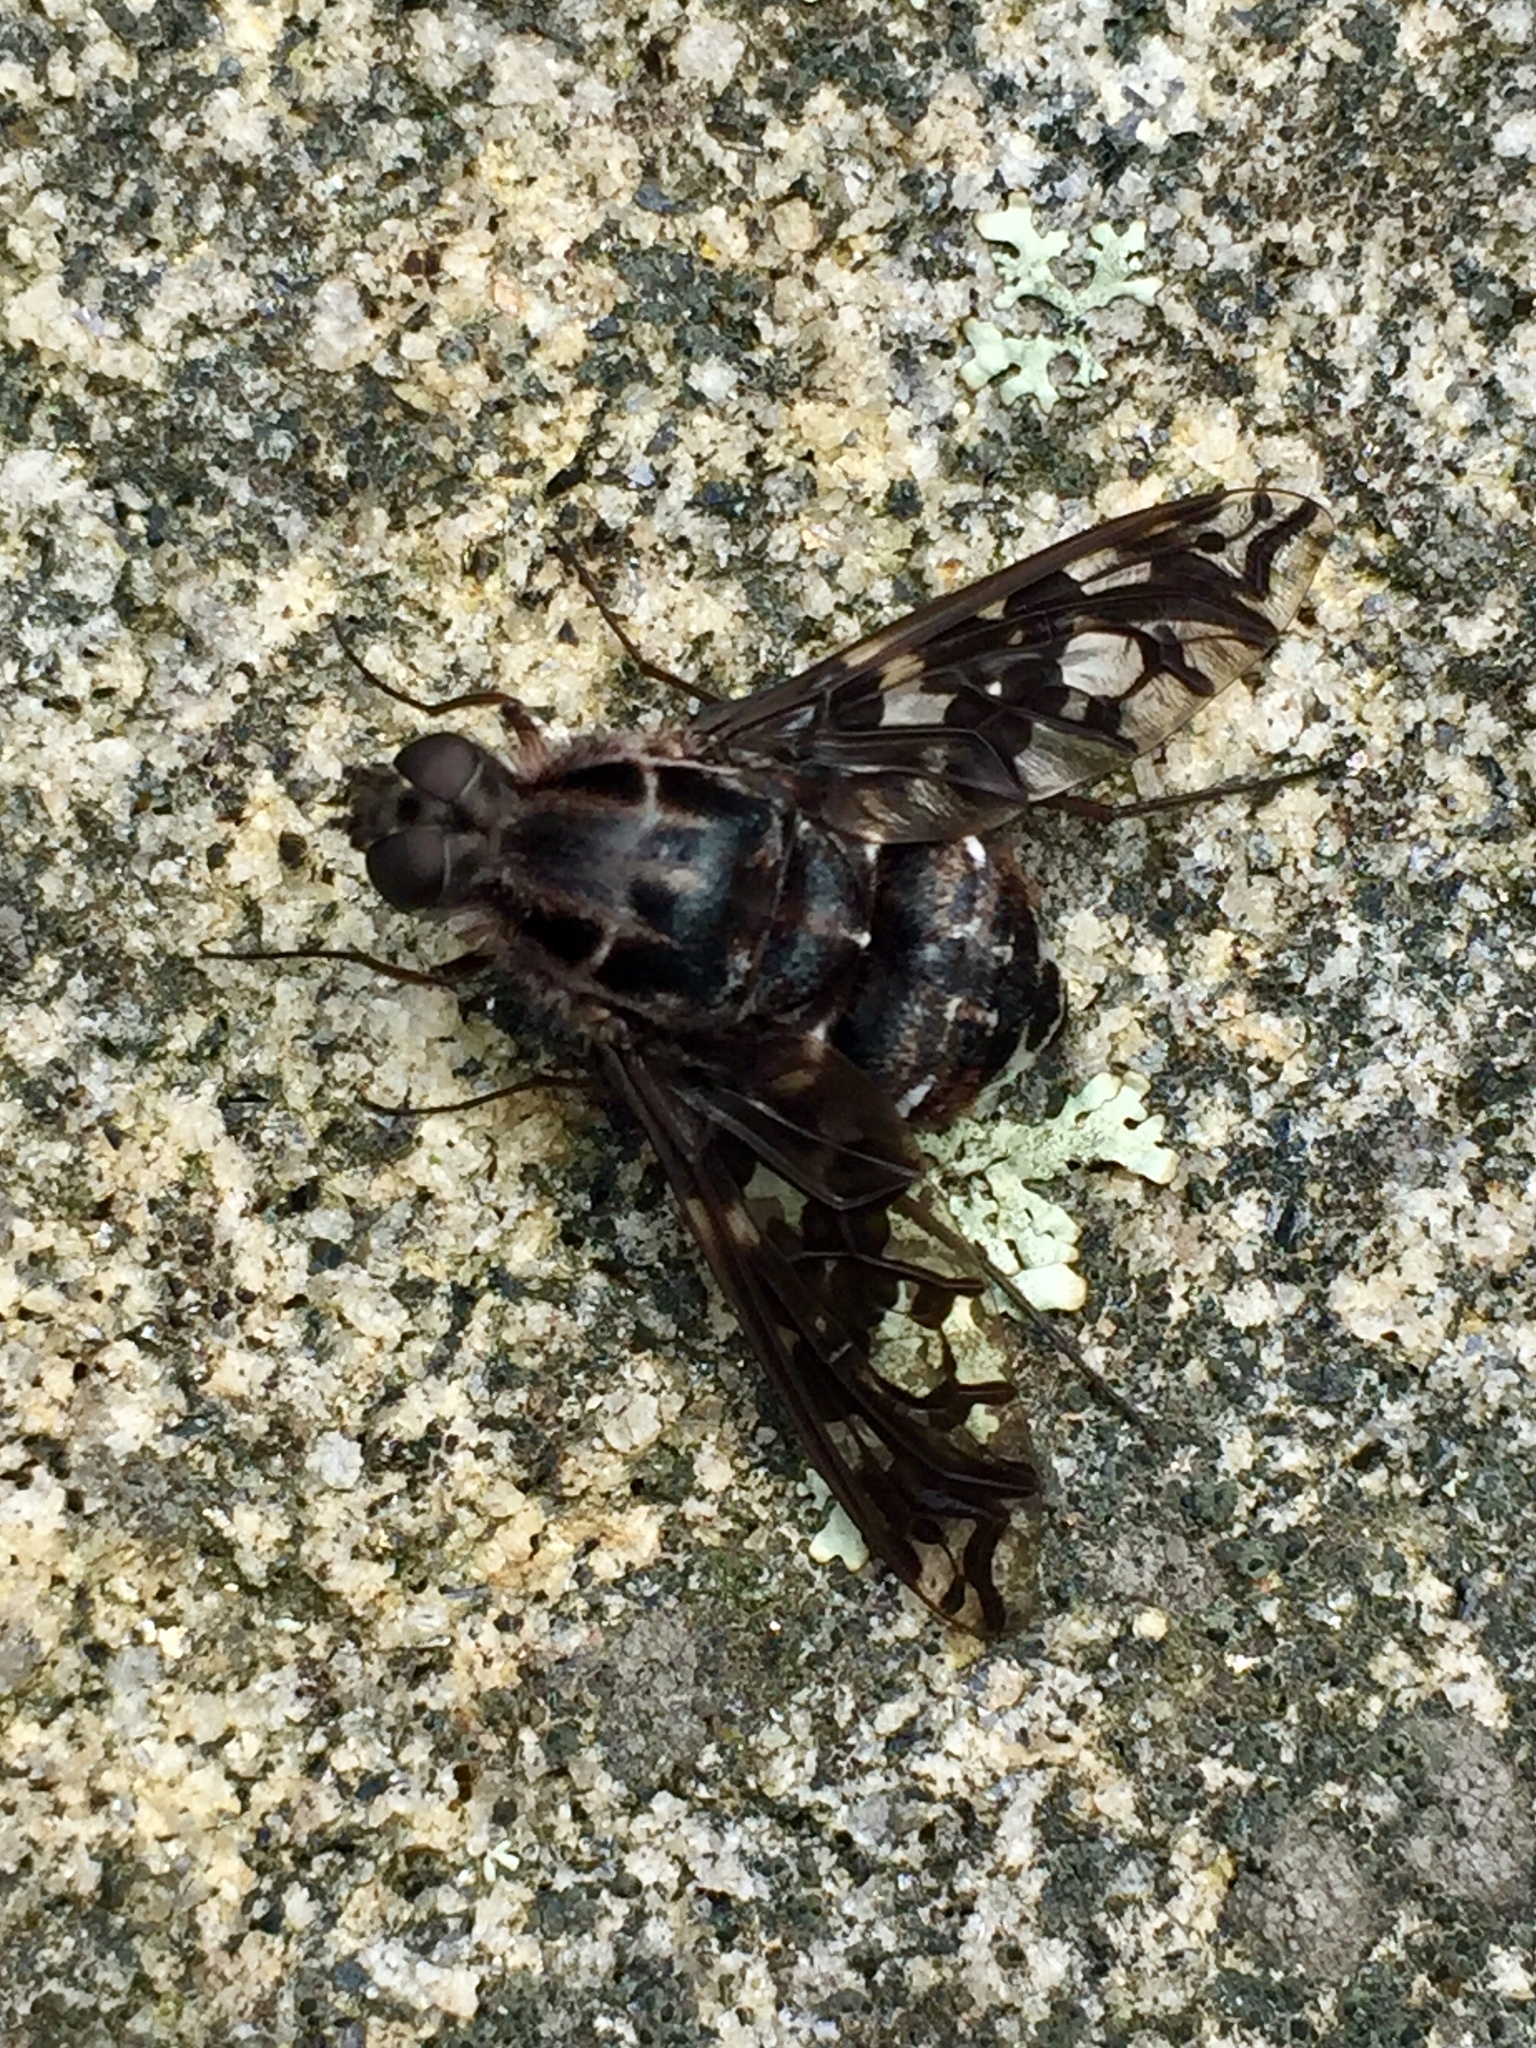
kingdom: Animalia
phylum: Arthropoda
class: Insecta
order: Diptera
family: Bombyliidae
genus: Xenox
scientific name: Xenox tigrinus
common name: Tiger bee fly
